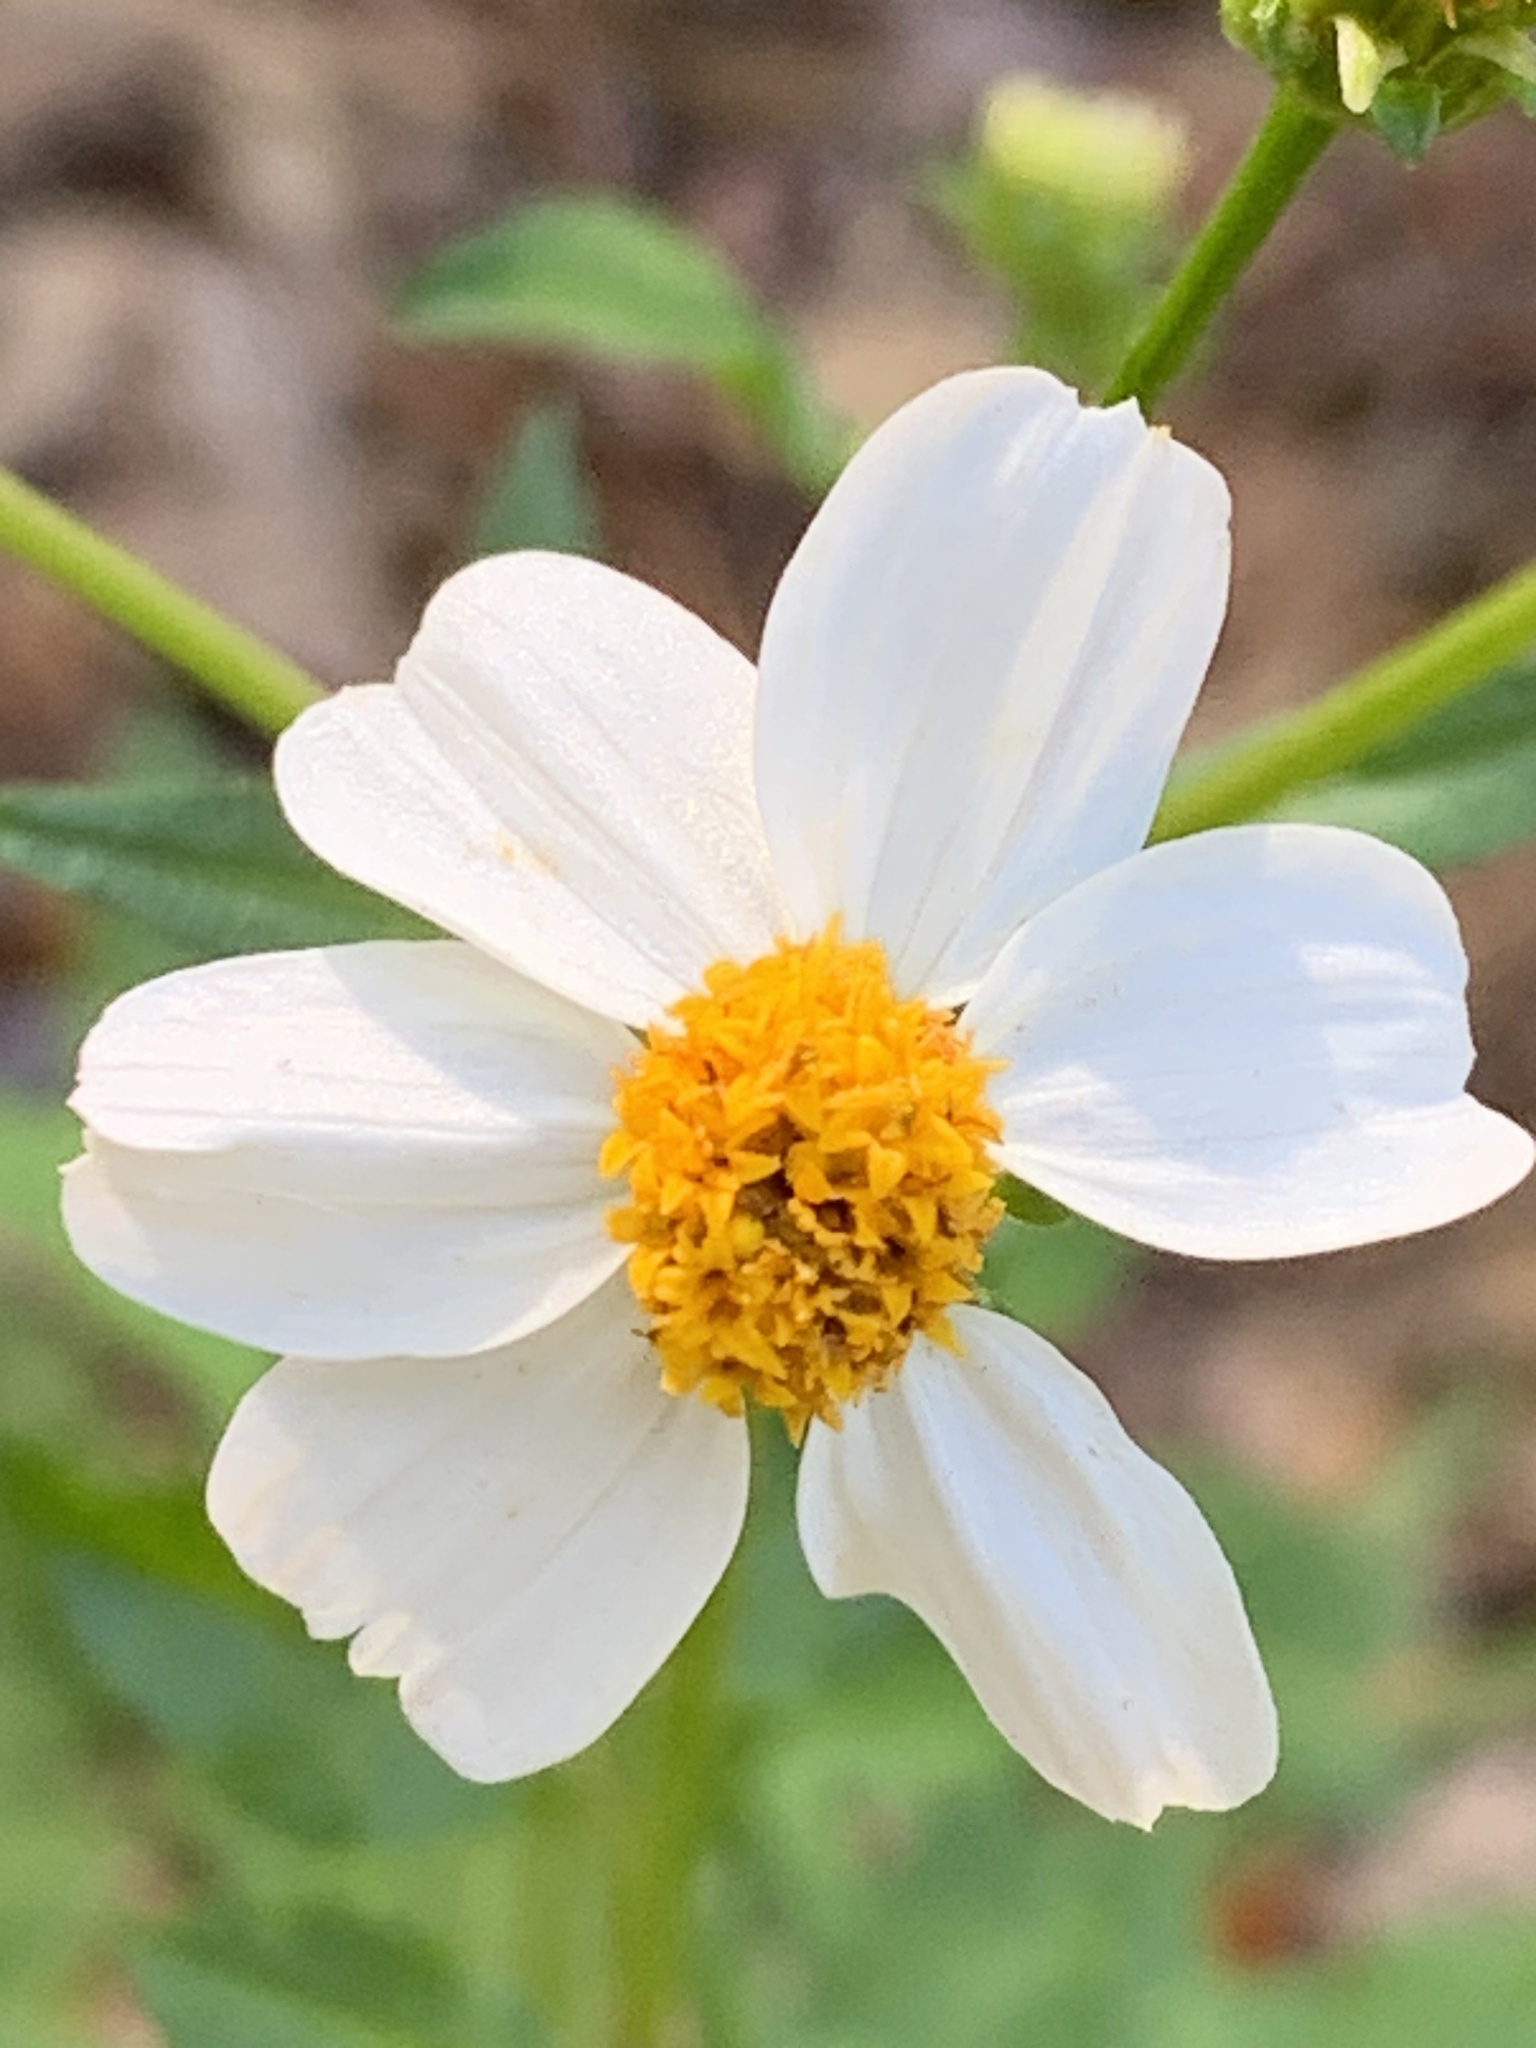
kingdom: Plantae
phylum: Tracheophyta
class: Magnoliopsida
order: Asterales
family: Asteraceae
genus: Bidens
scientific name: Bidens alba
